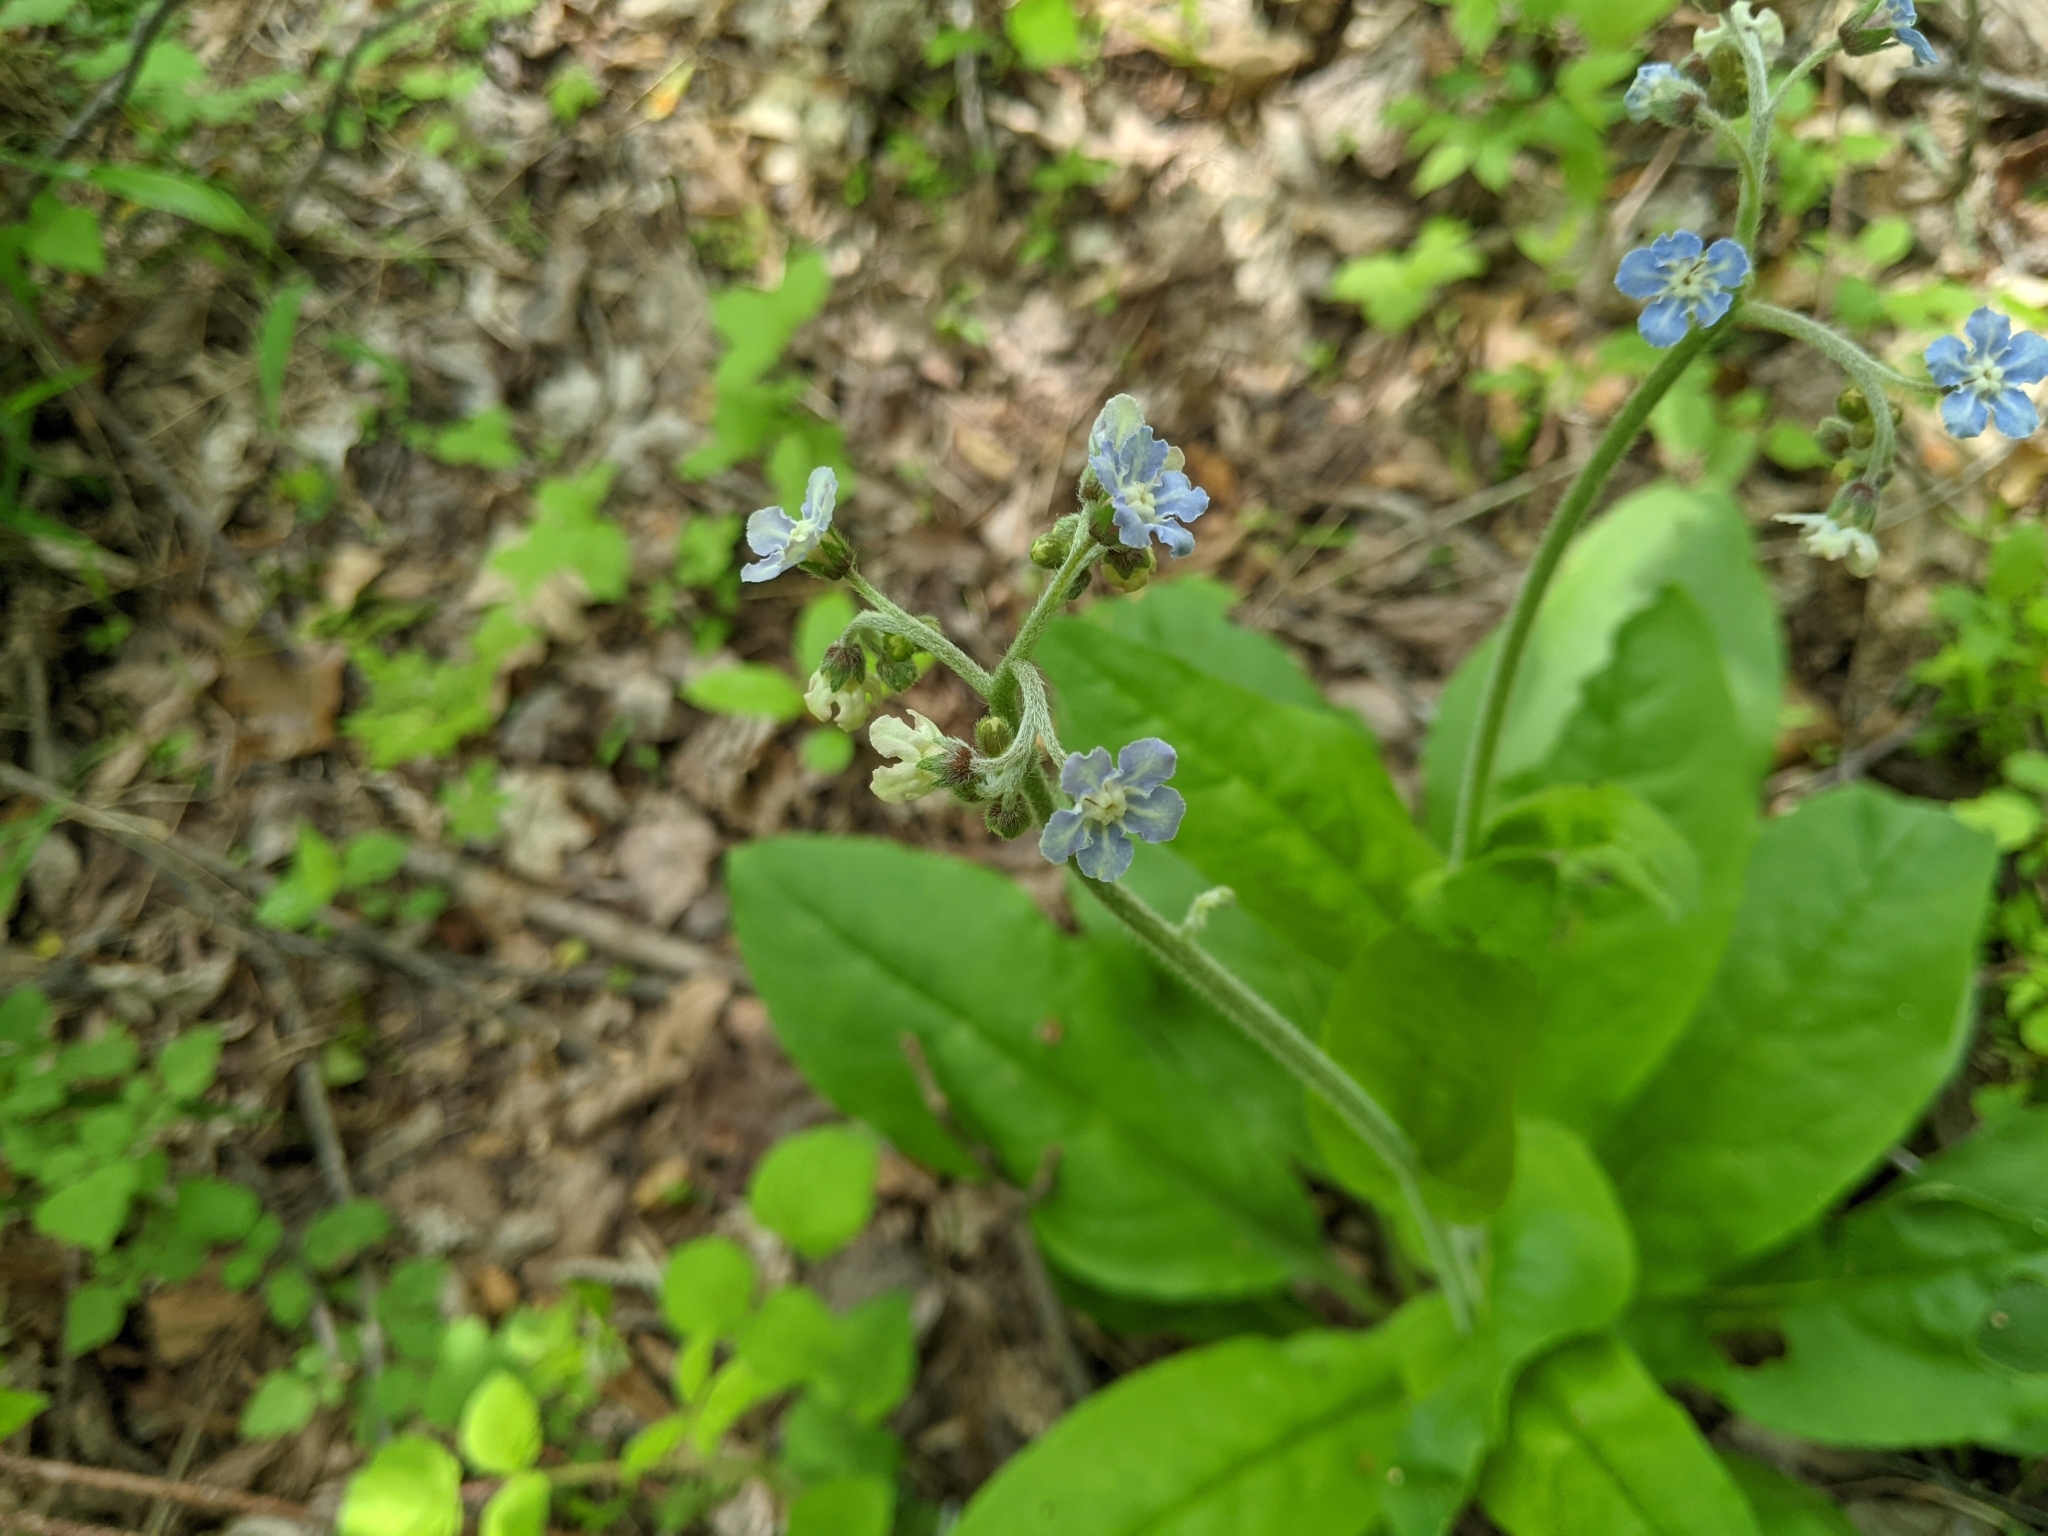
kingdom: Plantae
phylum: Tracheophyta
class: Magnoliopsida
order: Boraginales
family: Boraginaceae
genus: Andersonglossum
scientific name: Andersonglossum virginianum
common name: Wild comfrey
